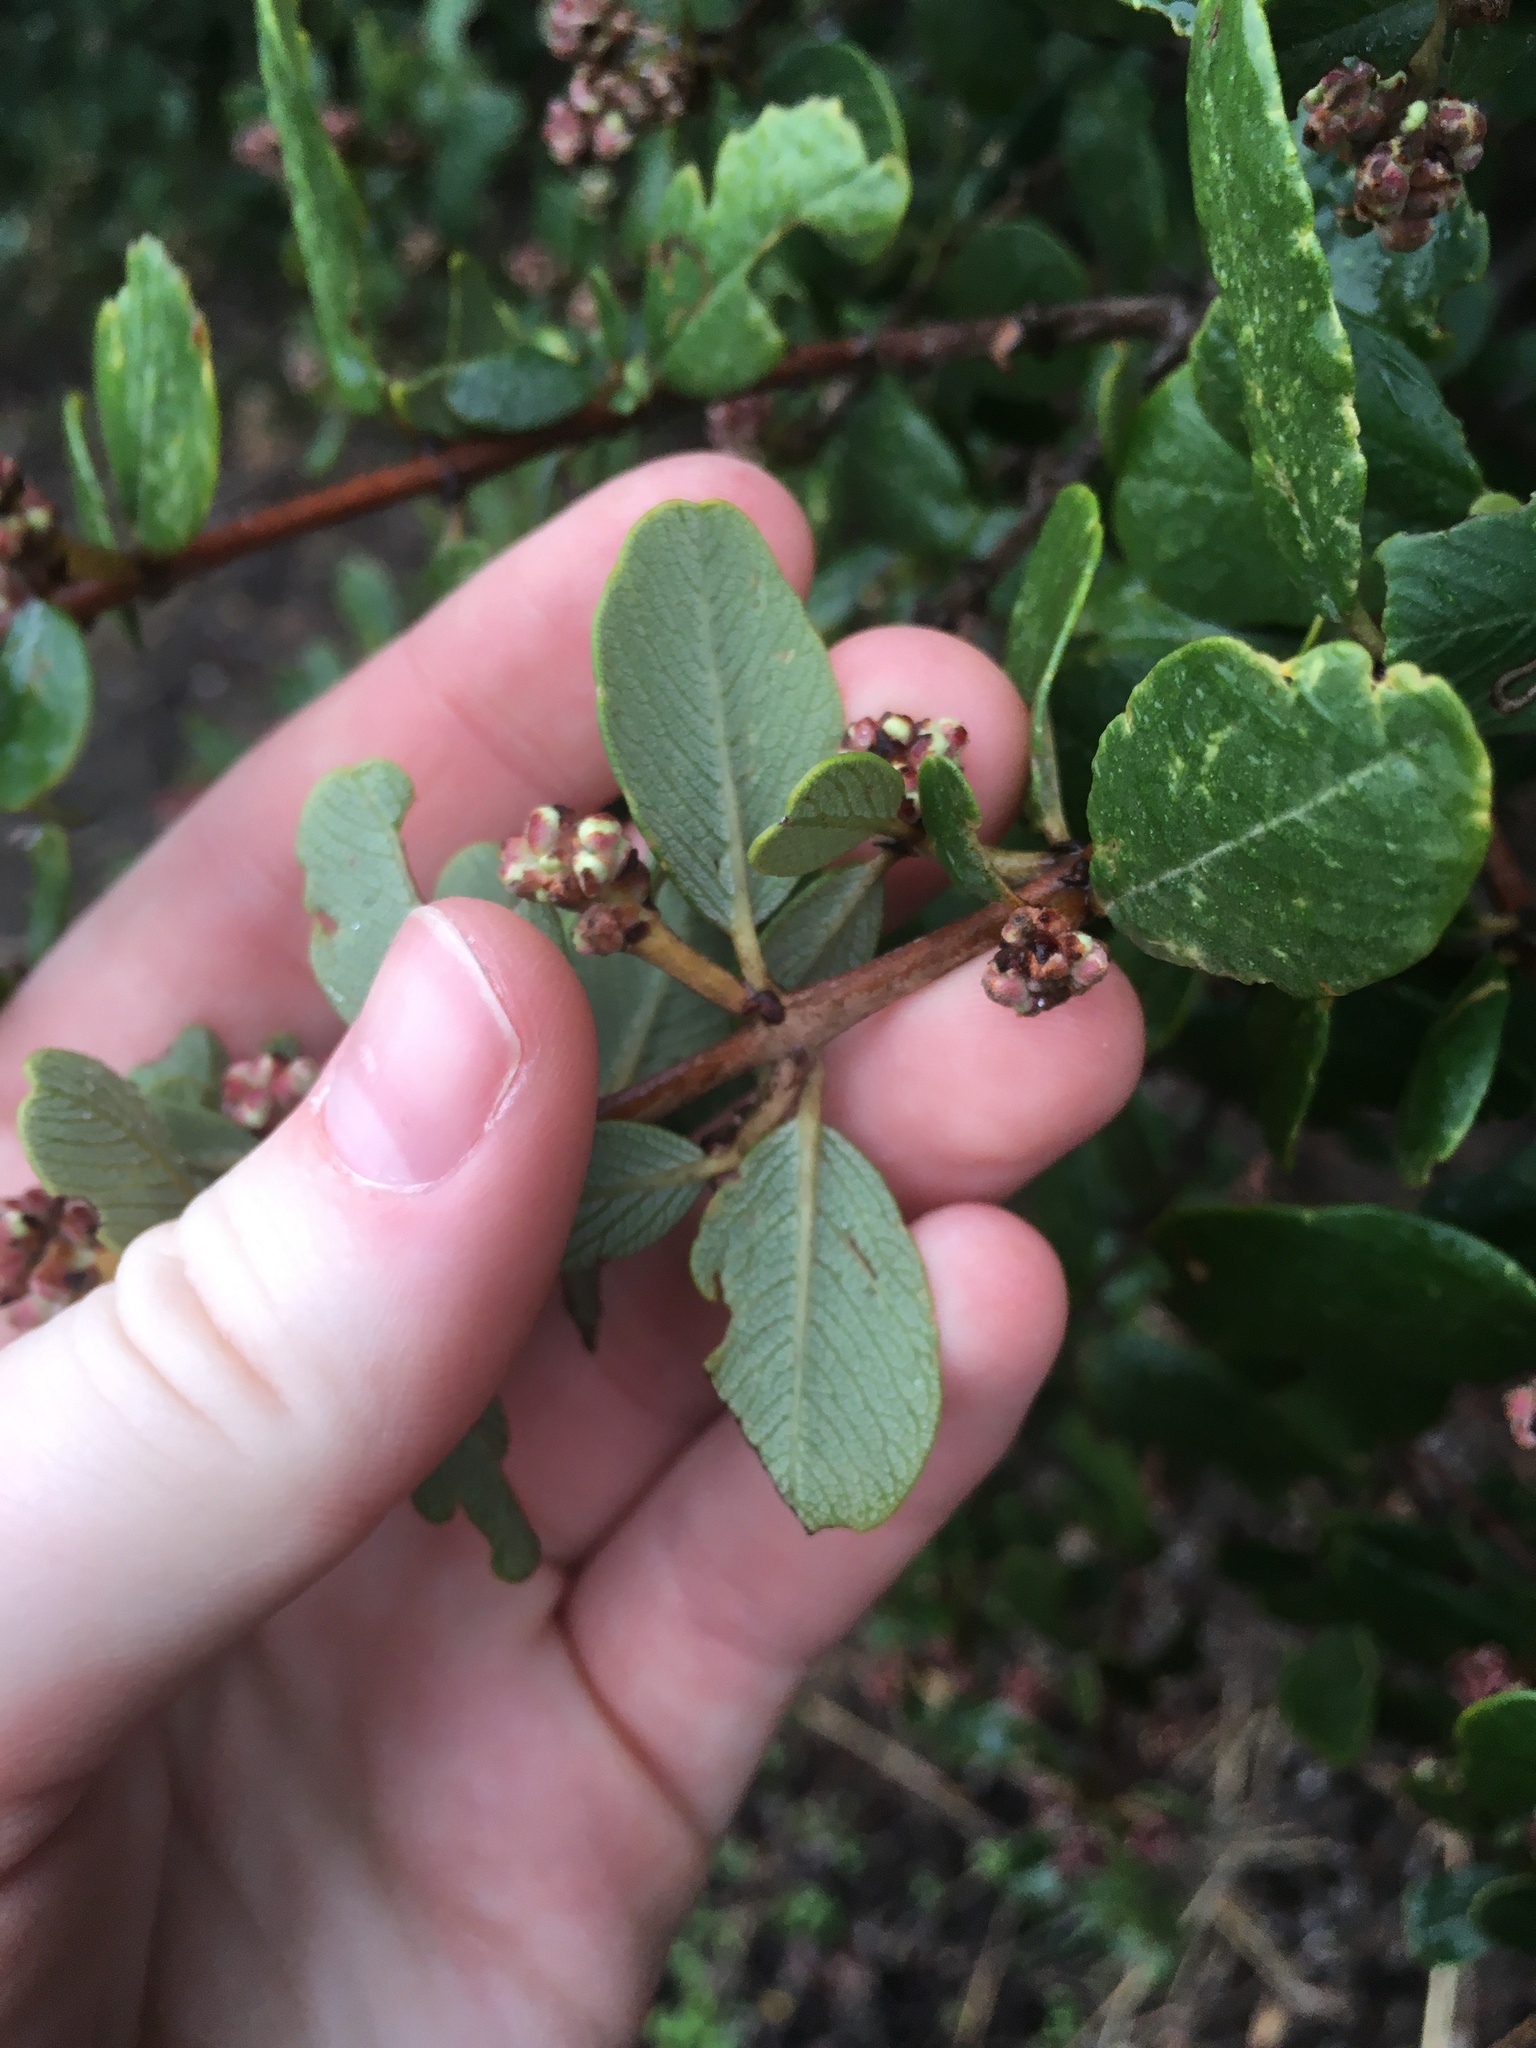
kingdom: Plantae
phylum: Tracheophyta
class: Magnoliopsida
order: Rosales
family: Rhamnaceae
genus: Ceanothus
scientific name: Ceanothus megacarpus
